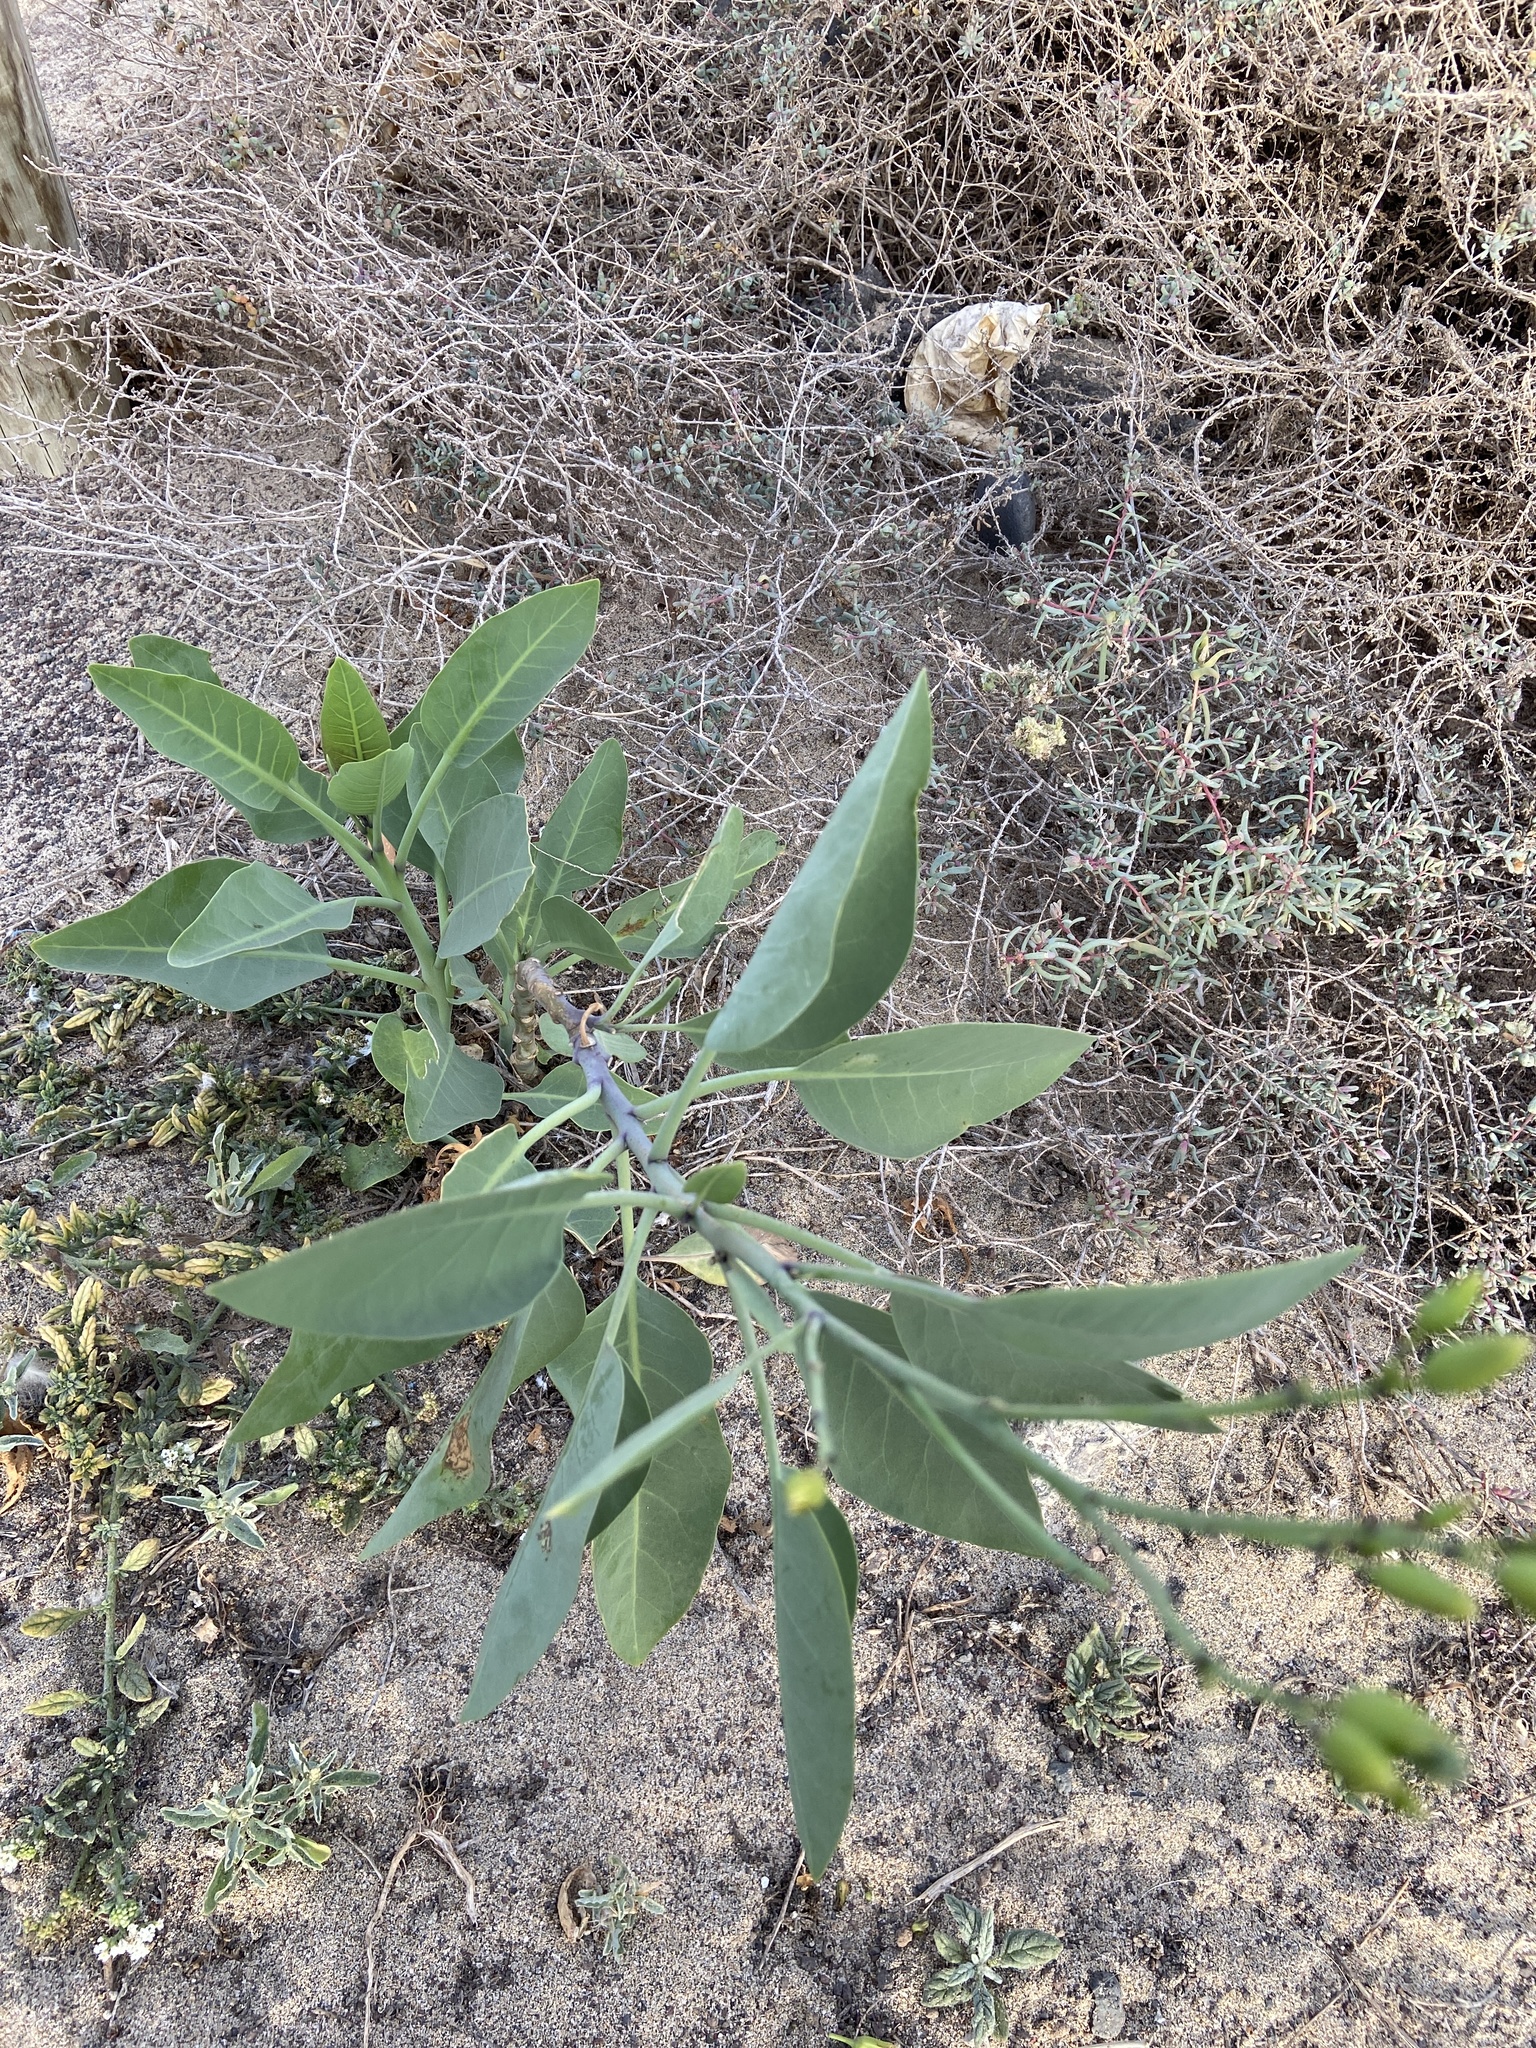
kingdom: Plantae
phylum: Tracheophyta
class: Magnoliopsida
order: Solanales
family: Solanaceae
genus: Nicotiana
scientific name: Nicotiana glauca
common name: Tree tobacco
